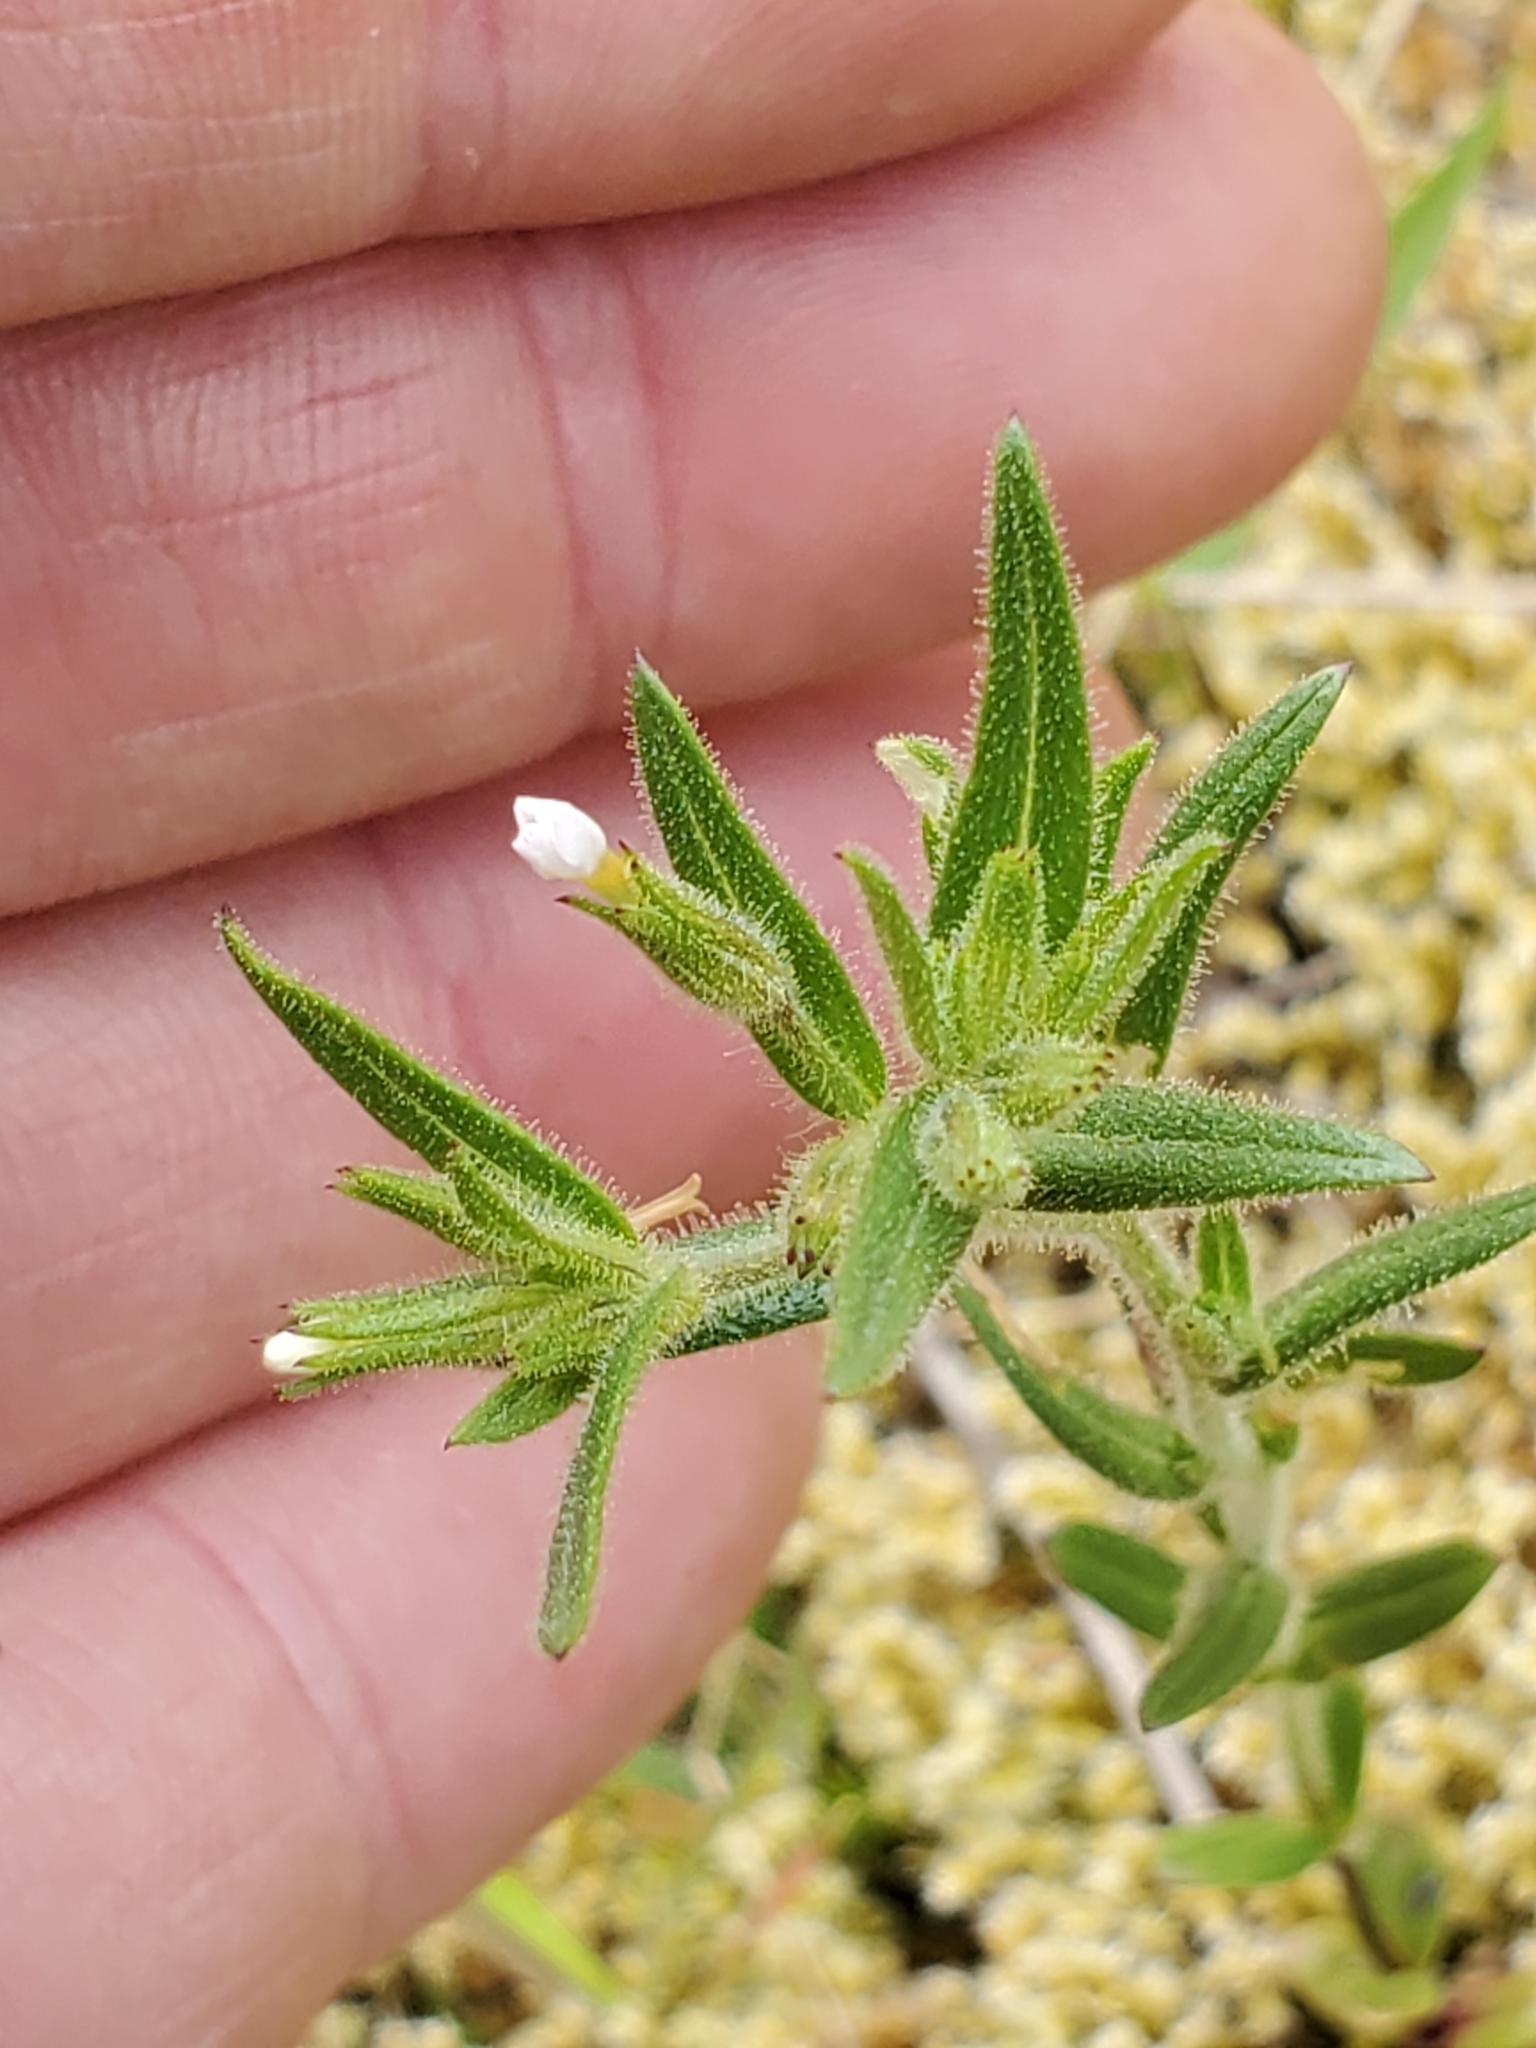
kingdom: Plantae
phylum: Tracheophyta
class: Magnoliopsida
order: Ericales
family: Polemoniaceae
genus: Phlox
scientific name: Phlox gracilis
